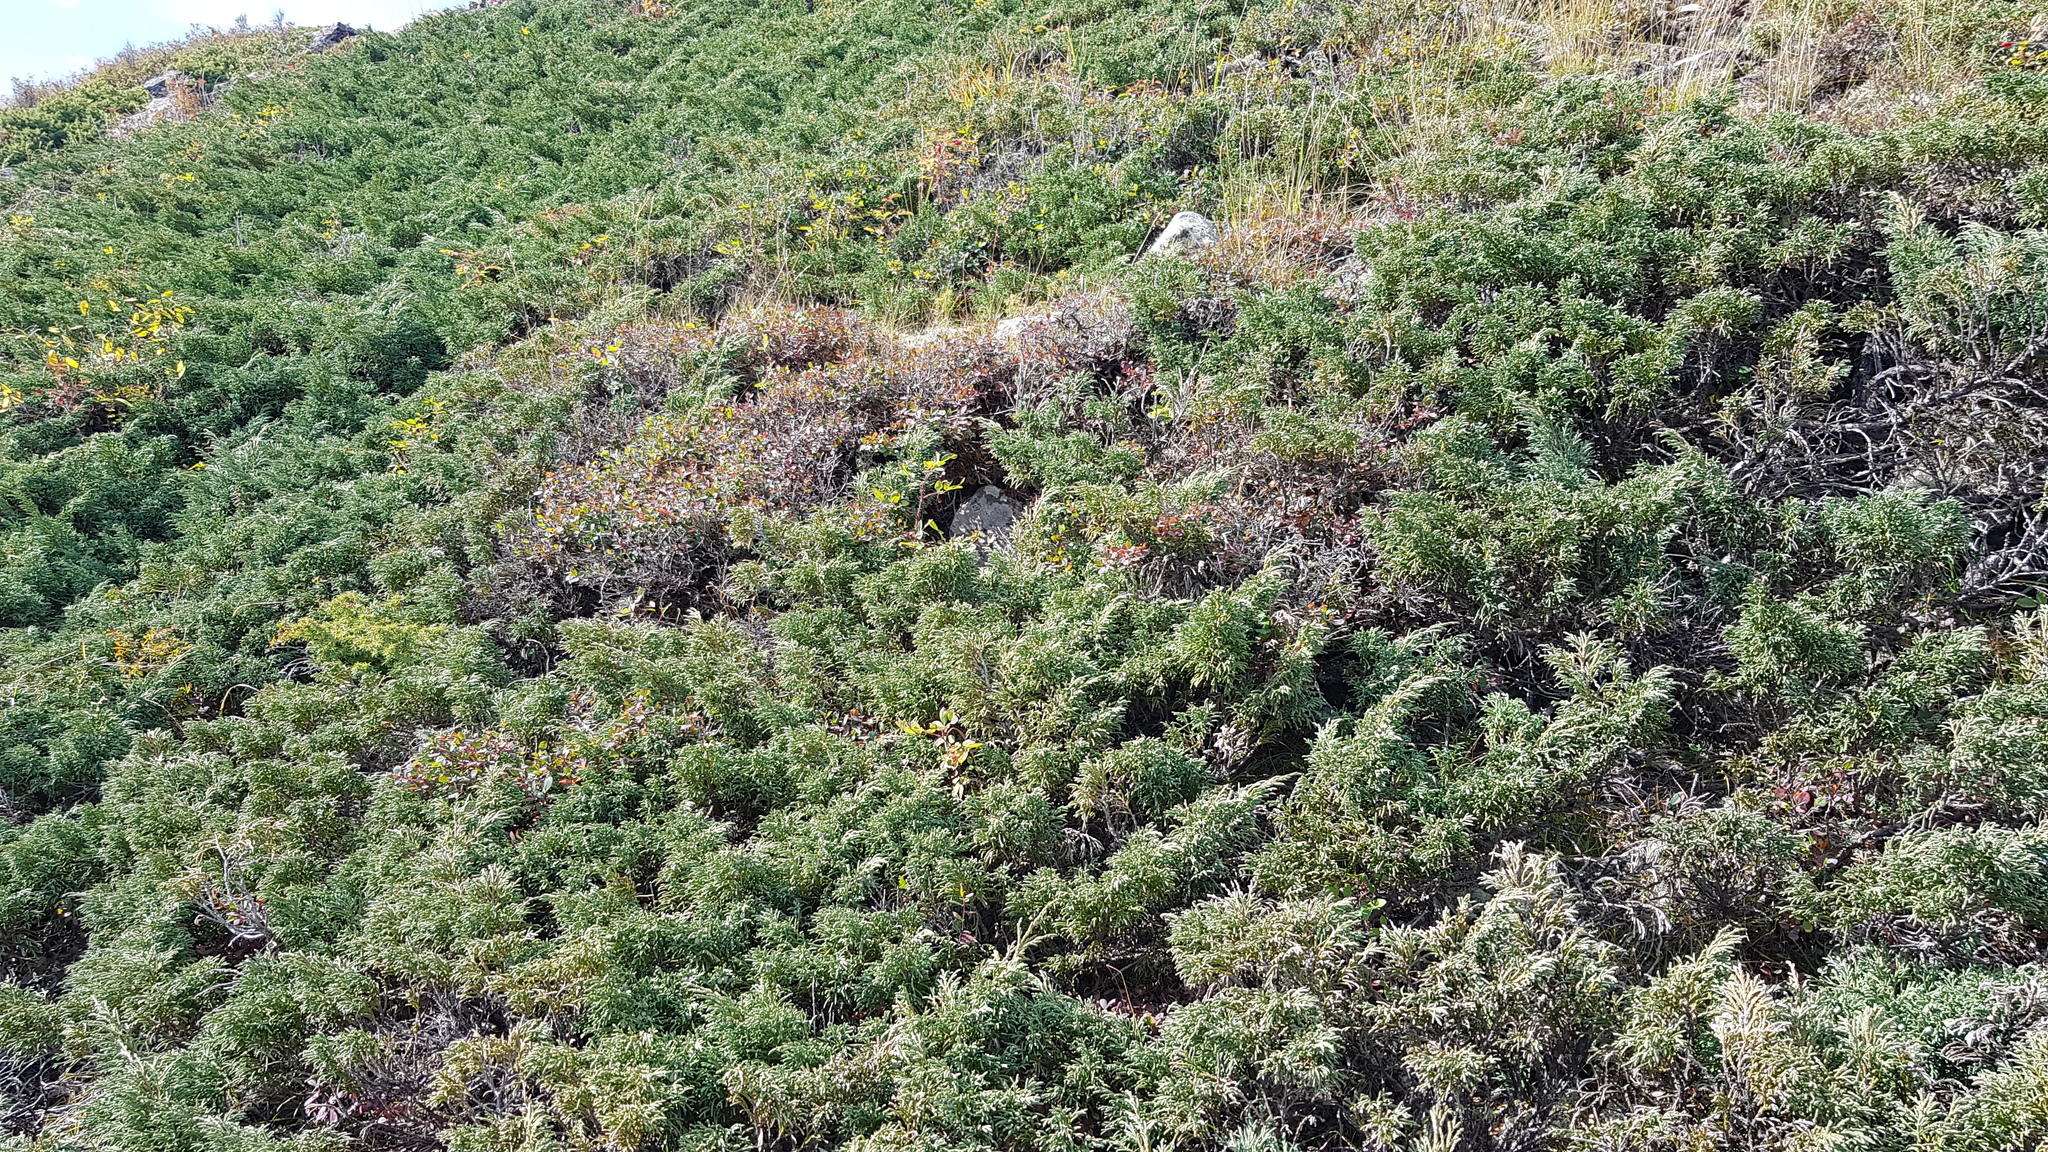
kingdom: Plantae
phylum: Tracheophyta
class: Pinopsida
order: Pinales
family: Cupressaceae
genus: Juniperus
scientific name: Juniperus communis
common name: Common juniper
